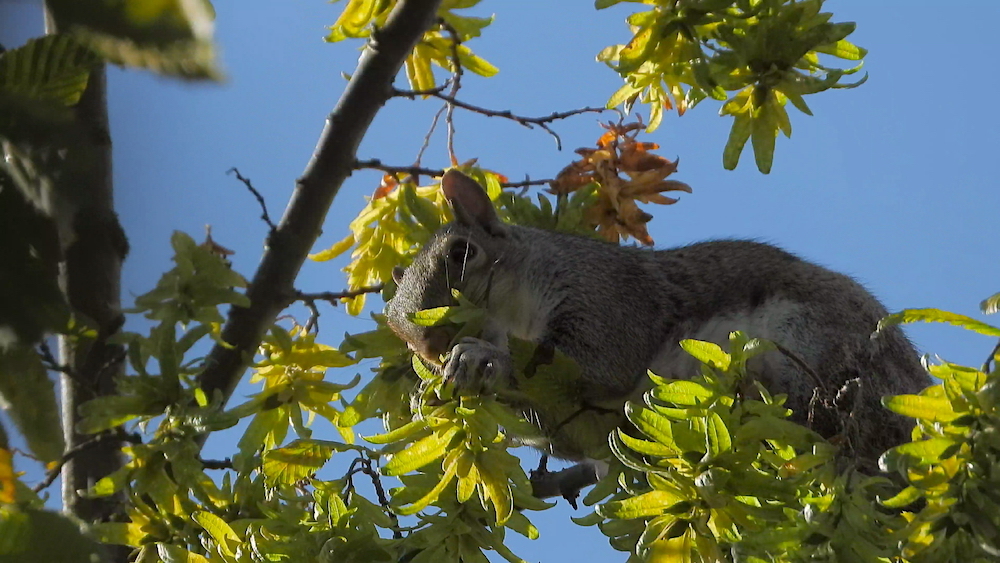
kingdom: Animalia
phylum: Chordata
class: Mammalia
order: Rodentia
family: Sciuridae
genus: Sciurus
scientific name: Sciurus carolinensis
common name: Eastern gray squirrel
